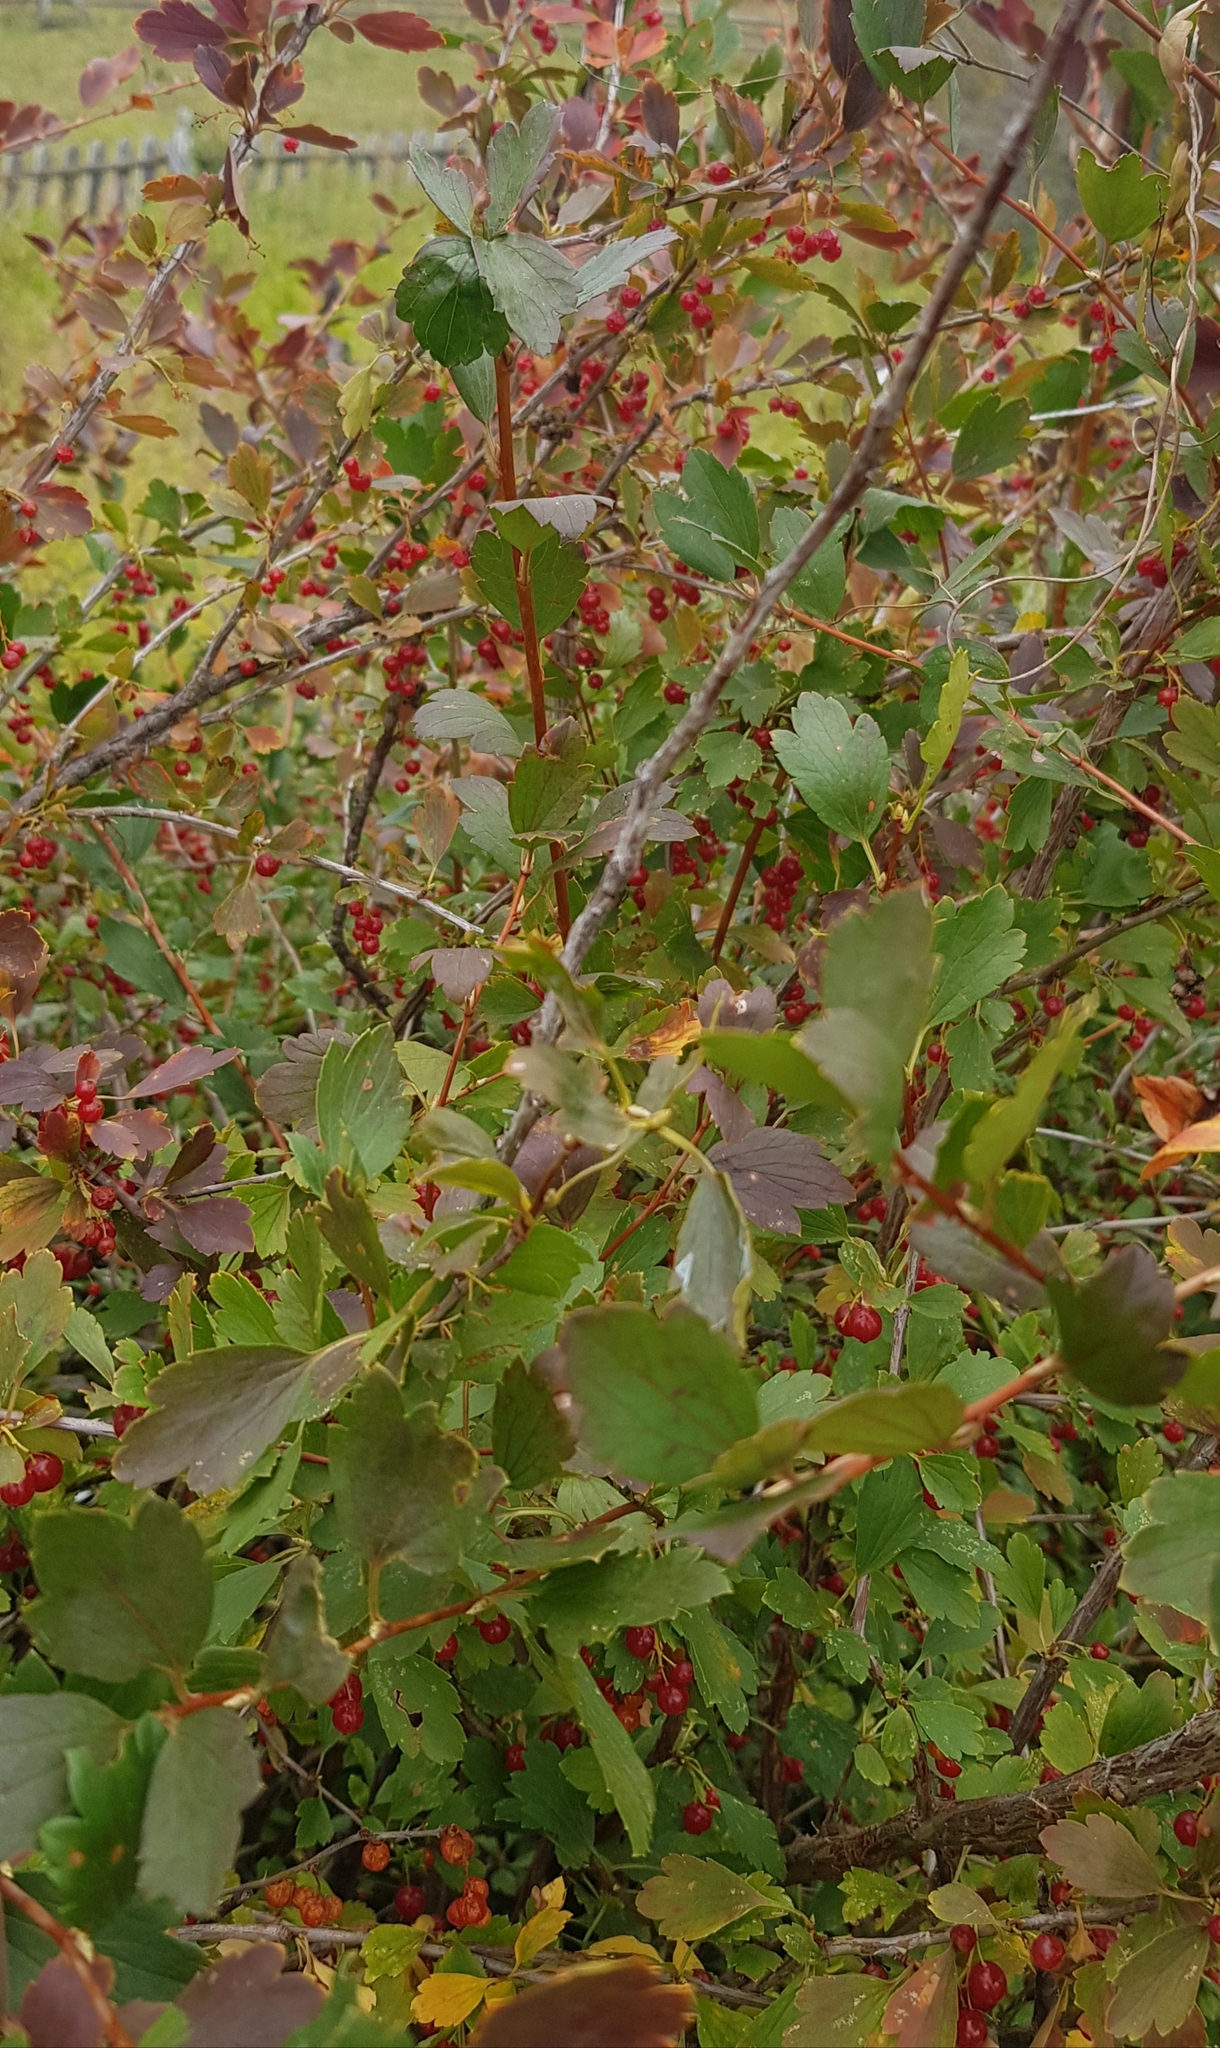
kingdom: Plantae
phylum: Tracheophyta
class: Magnoliopsida
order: Saxifragales
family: Grossulariaceae
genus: Ribes
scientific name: Ribes diacanthum
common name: Siberian currant
